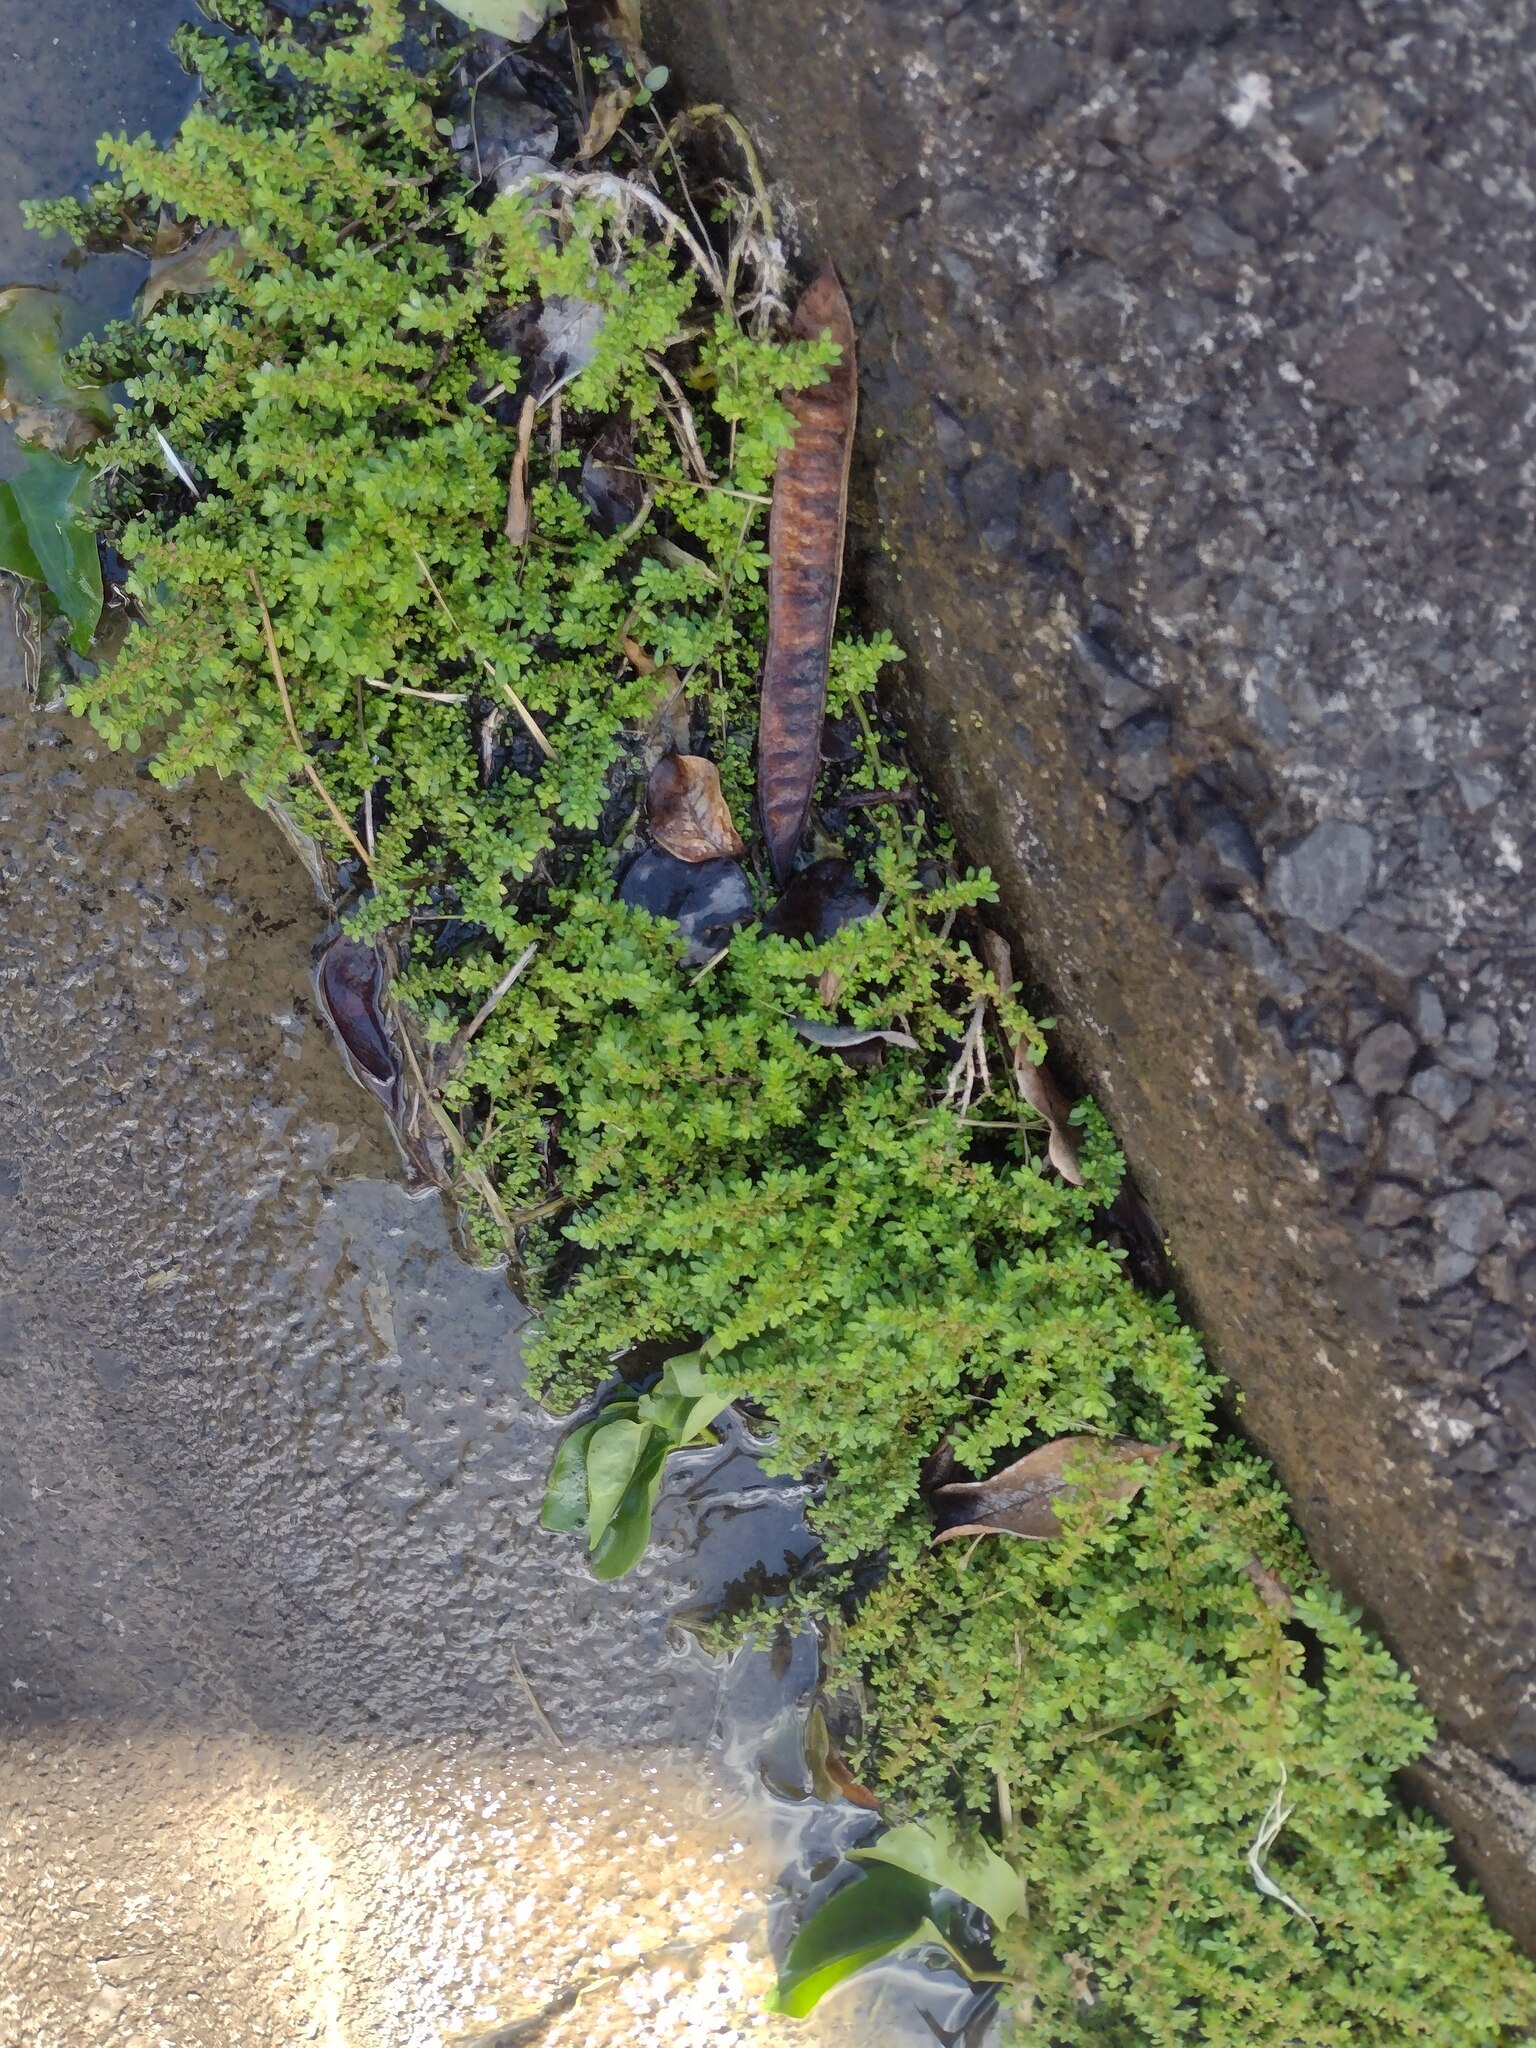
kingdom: Plantae
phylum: Tracheophyta
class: Magnoliopsida
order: Rosales
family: Urticaceae
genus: Pilea
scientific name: Pilea microphylla
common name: Artillery-plant
